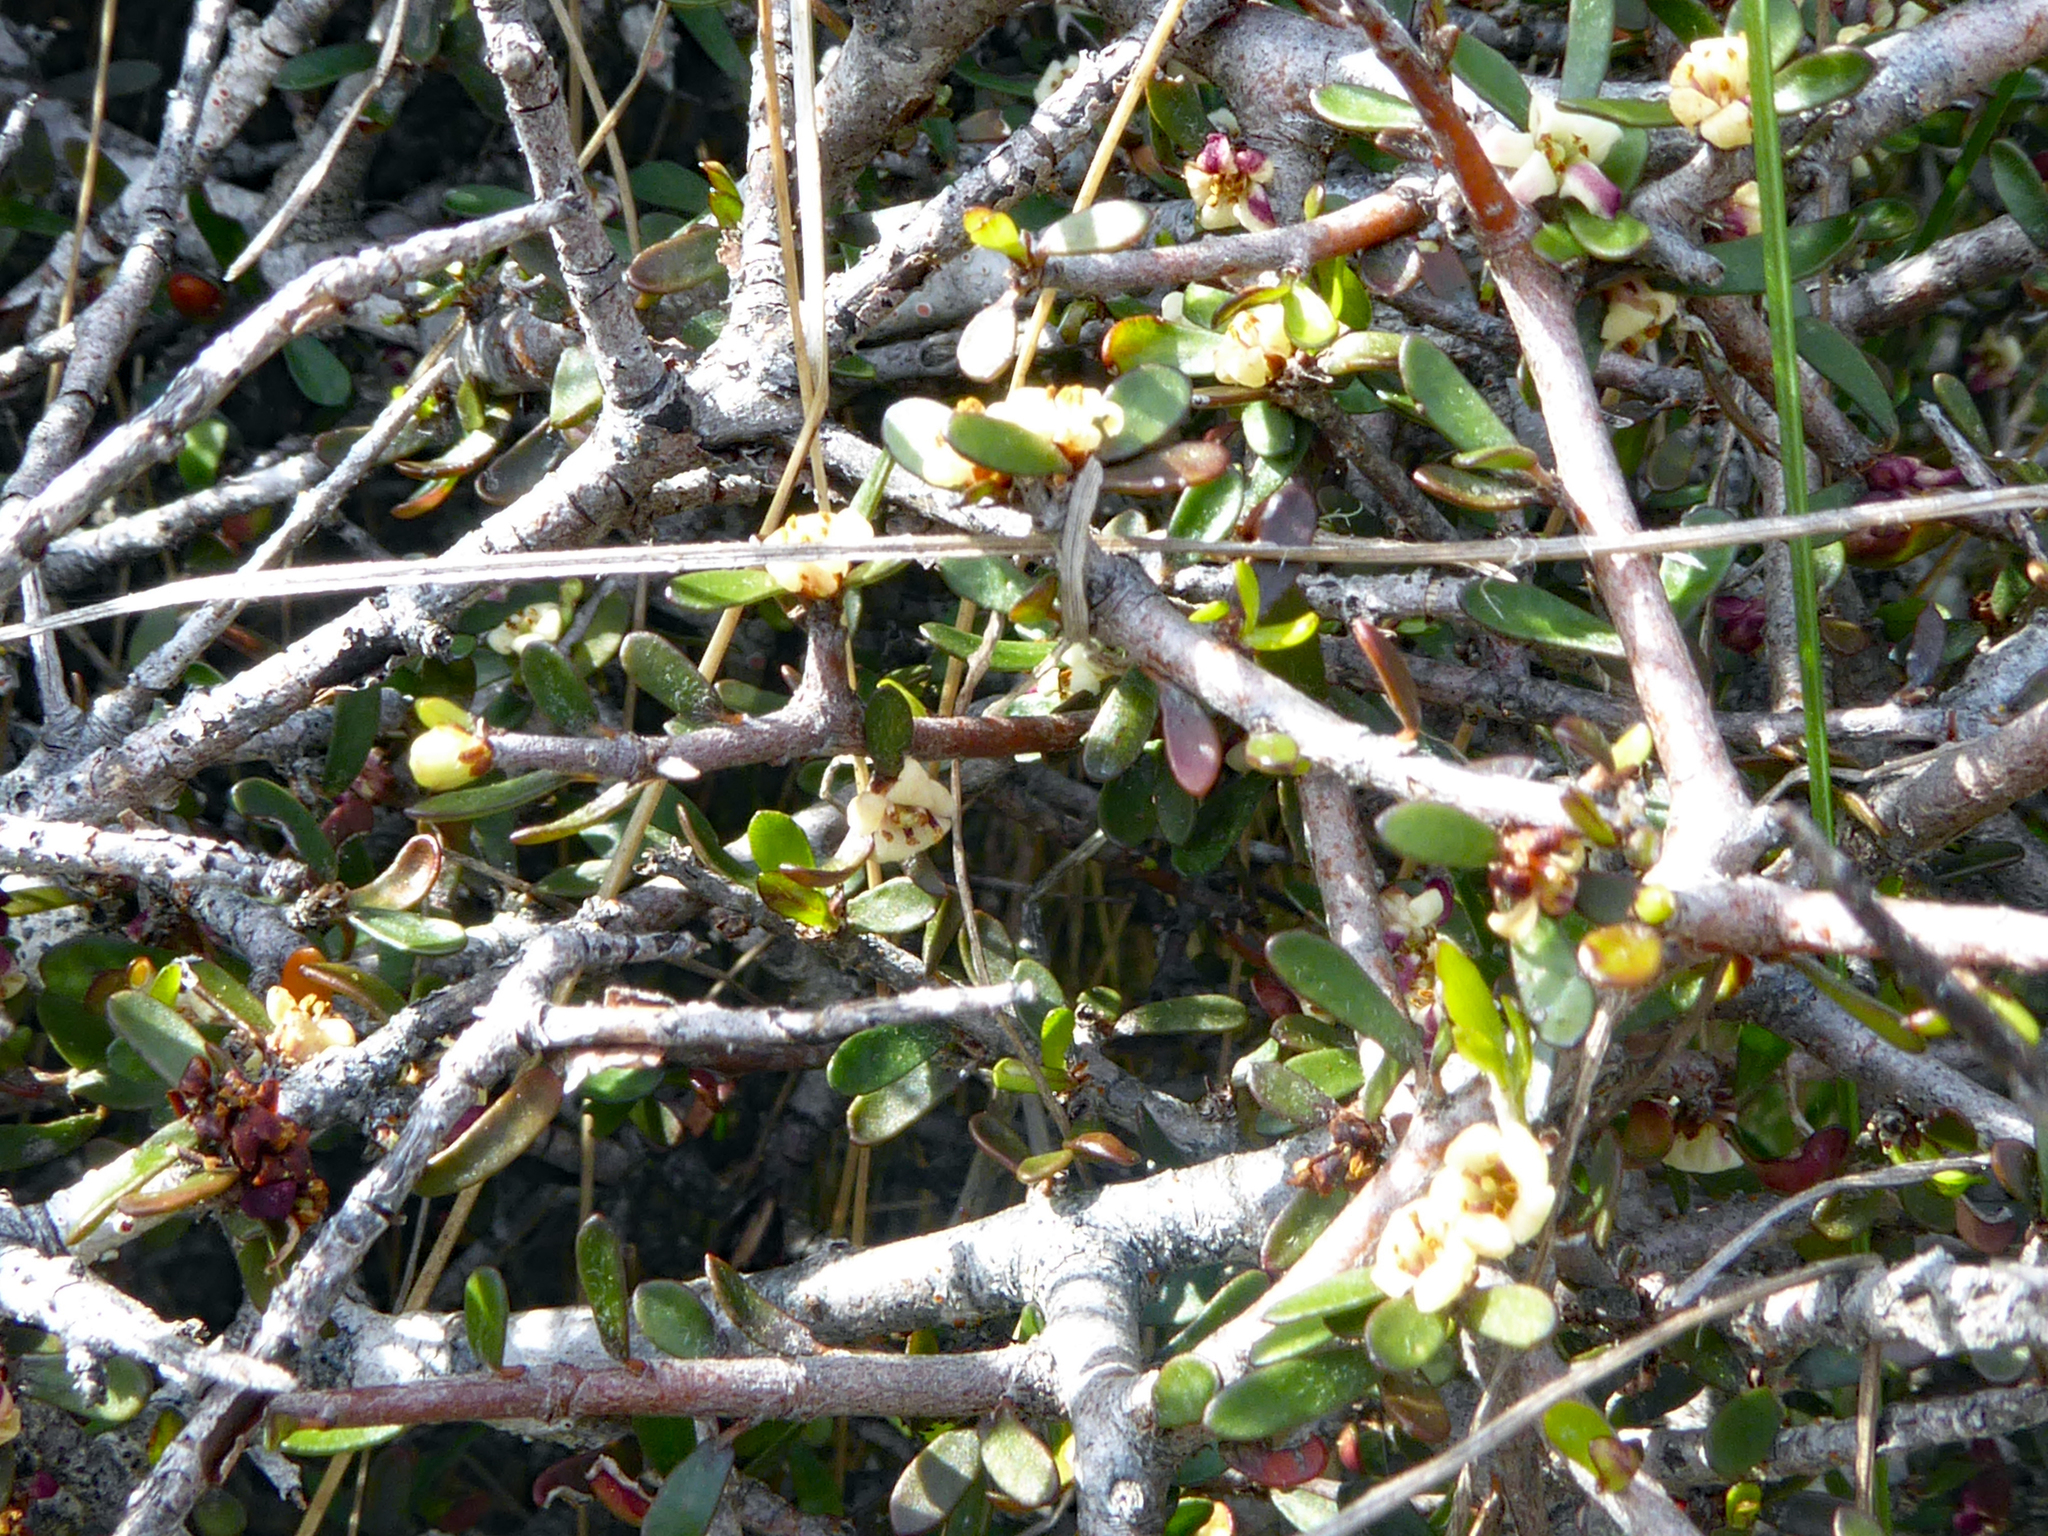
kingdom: Plantae
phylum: Tracheophyta
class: Magnoliopsida
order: Apiales
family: Pittosporaceae
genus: Pittosporum
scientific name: Pittosporum anomalum
